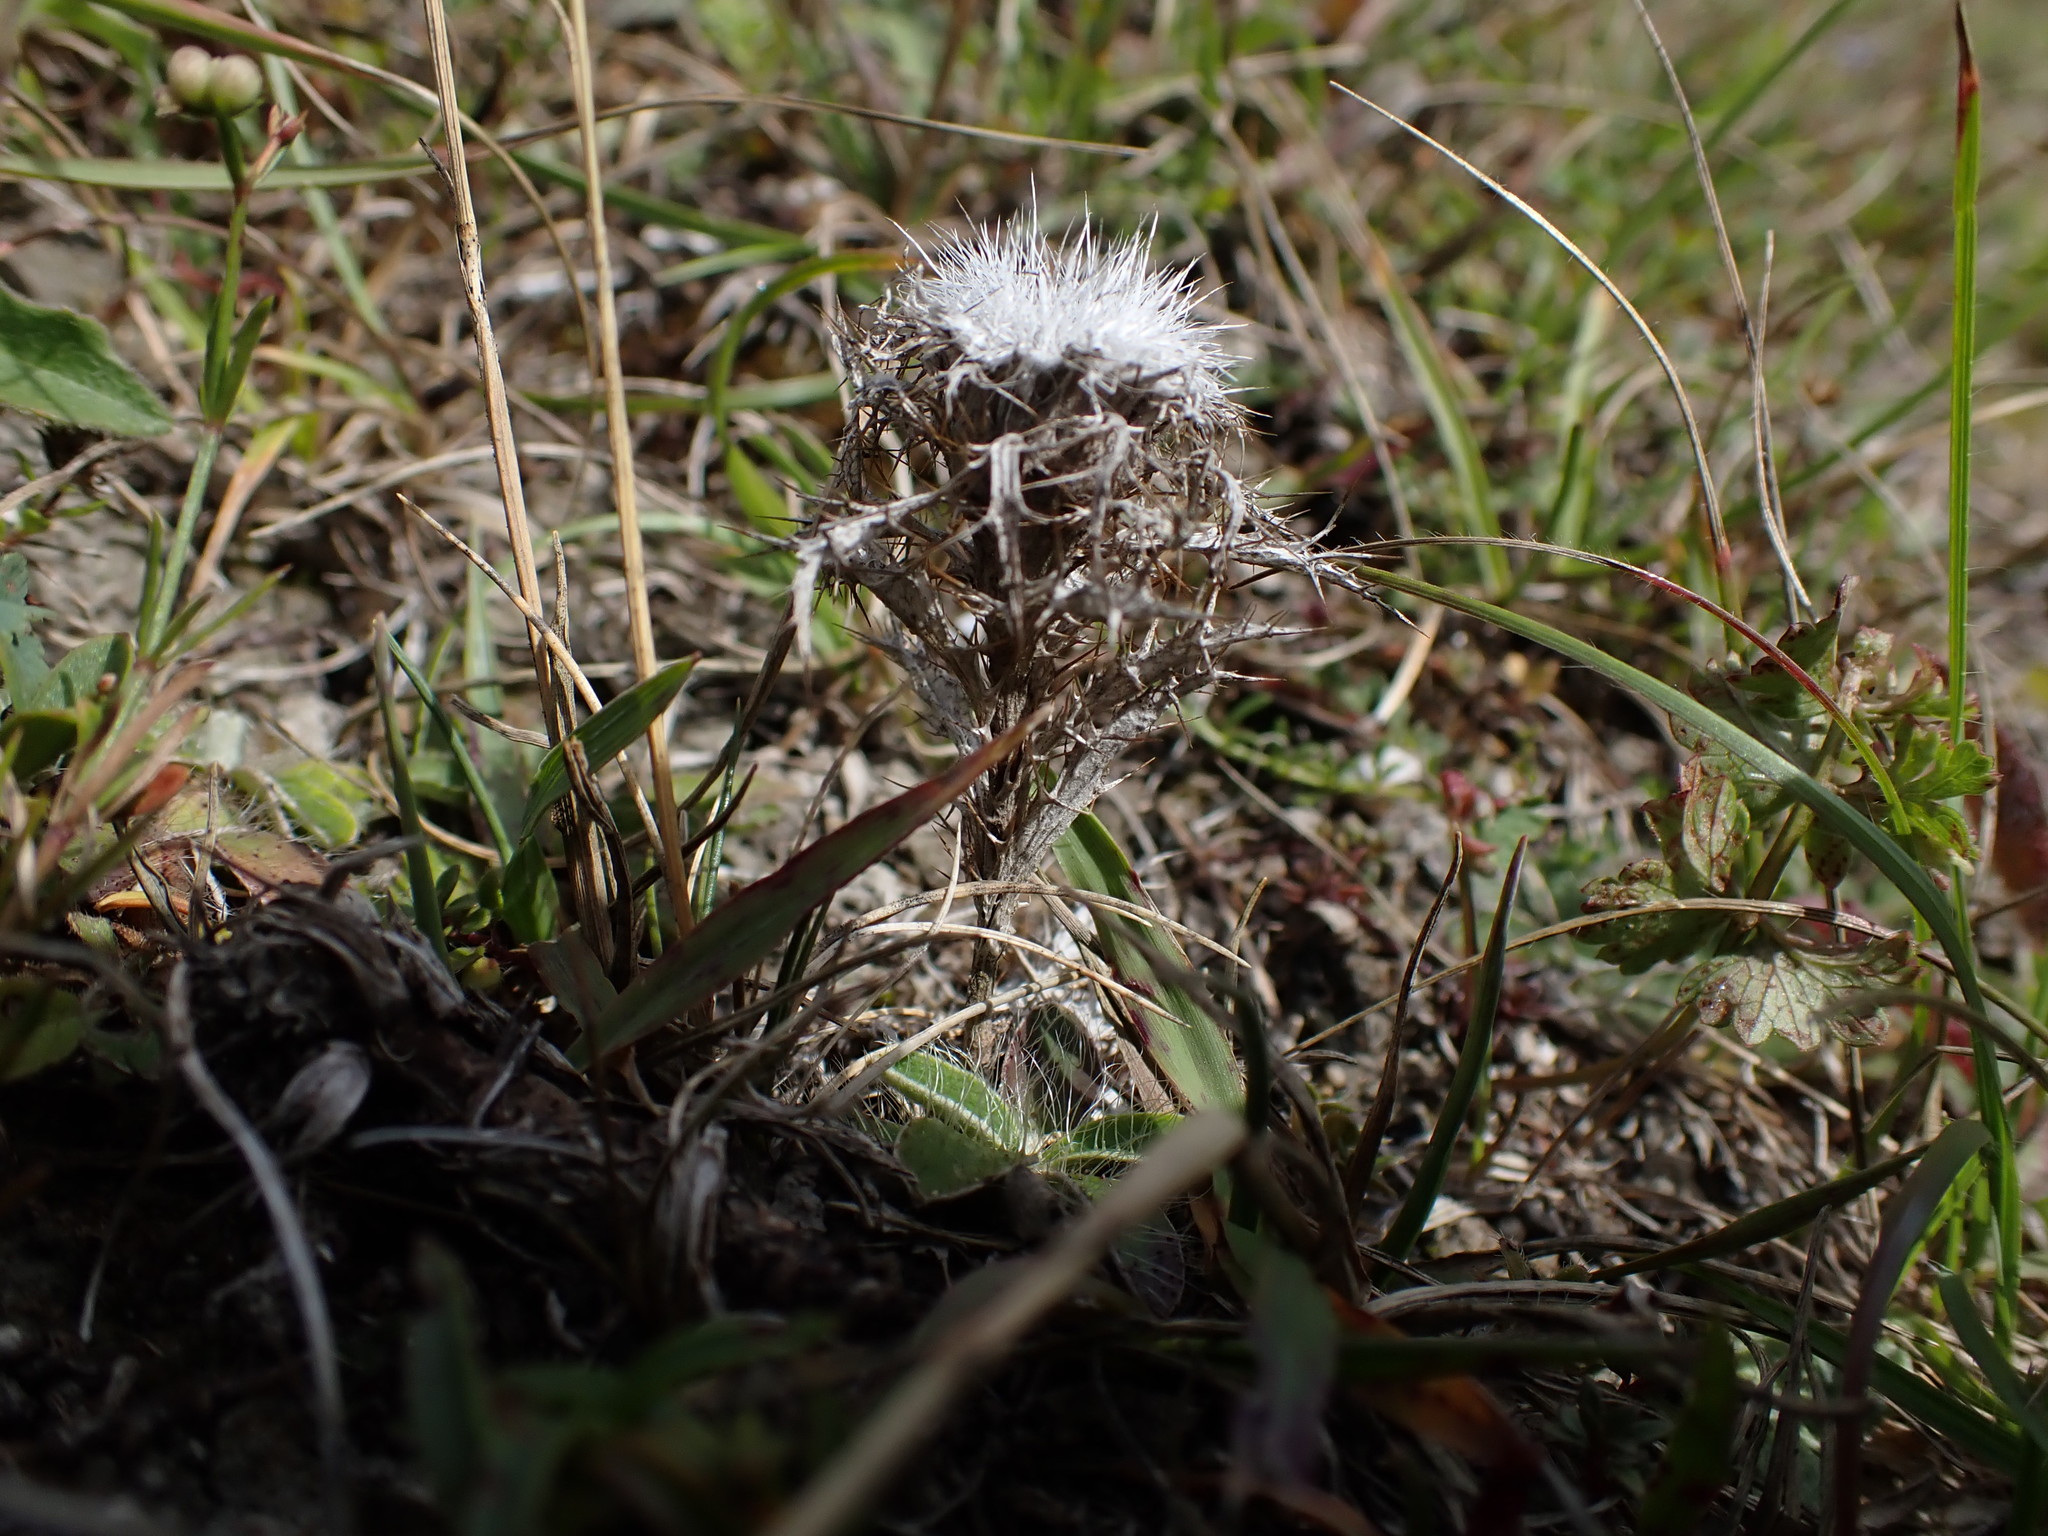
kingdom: Plantae
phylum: Tracheophyta
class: Magnoliopsida
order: Asterales
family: Asteraceae
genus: Carlina
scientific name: Carlina vulgaris
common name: Carline thistle
